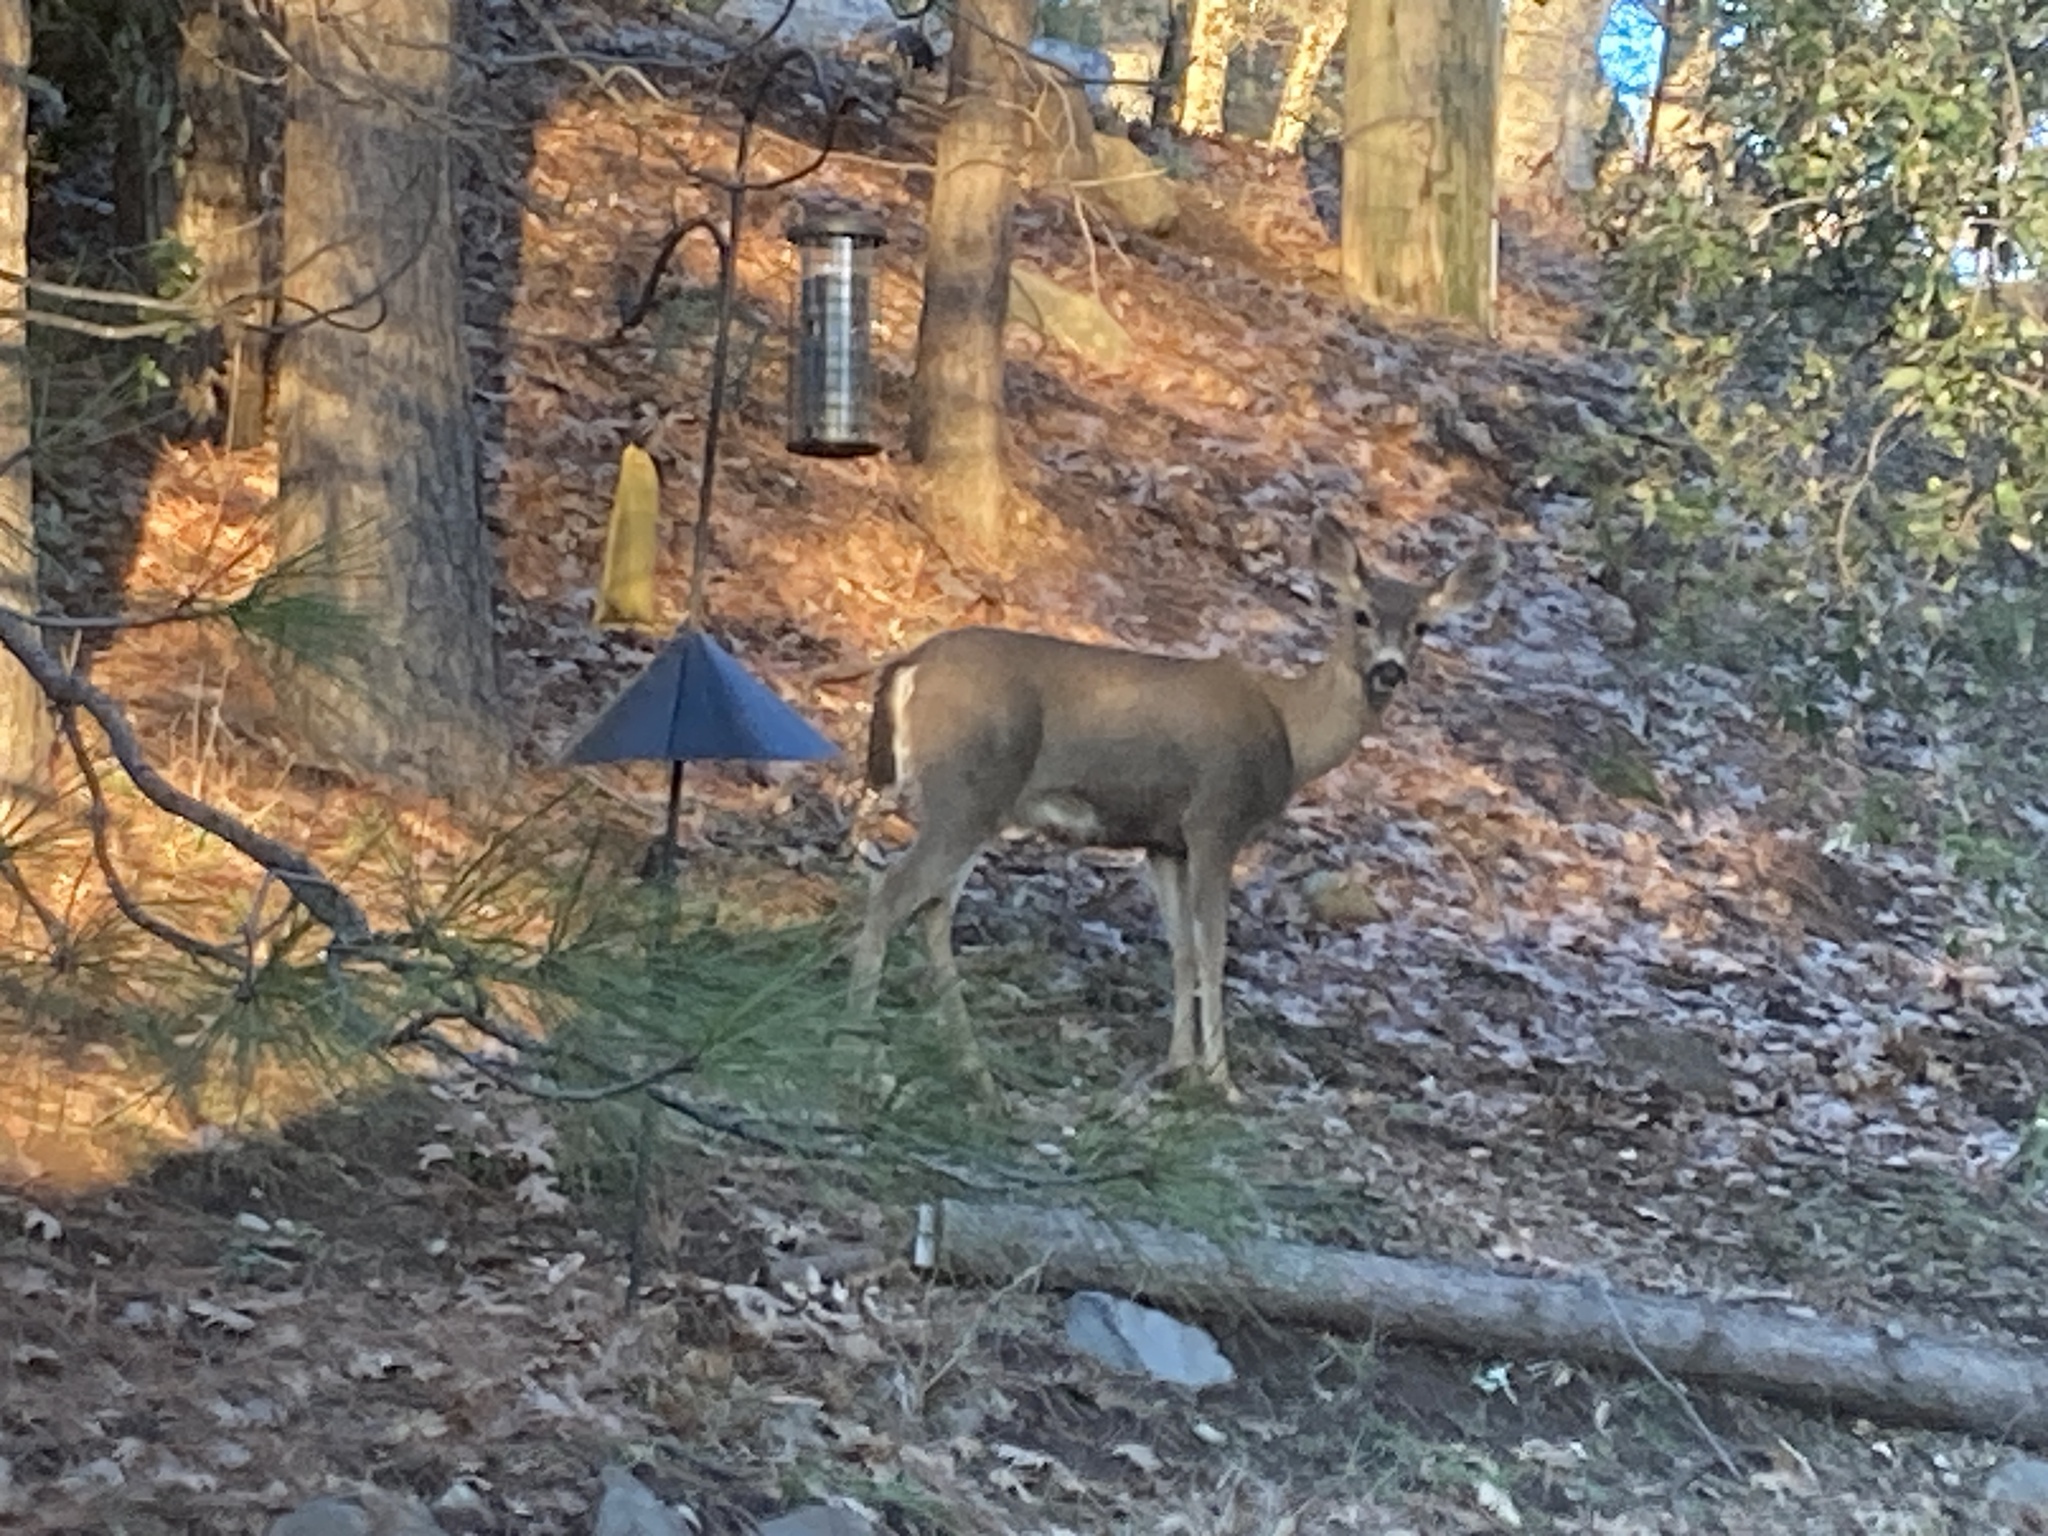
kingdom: Animalia
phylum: Chordata
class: Mammalia
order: Artiodactyla
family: Cervidae
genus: Odocoileus
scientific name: Odocoileus hemionus
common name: Mule deer
